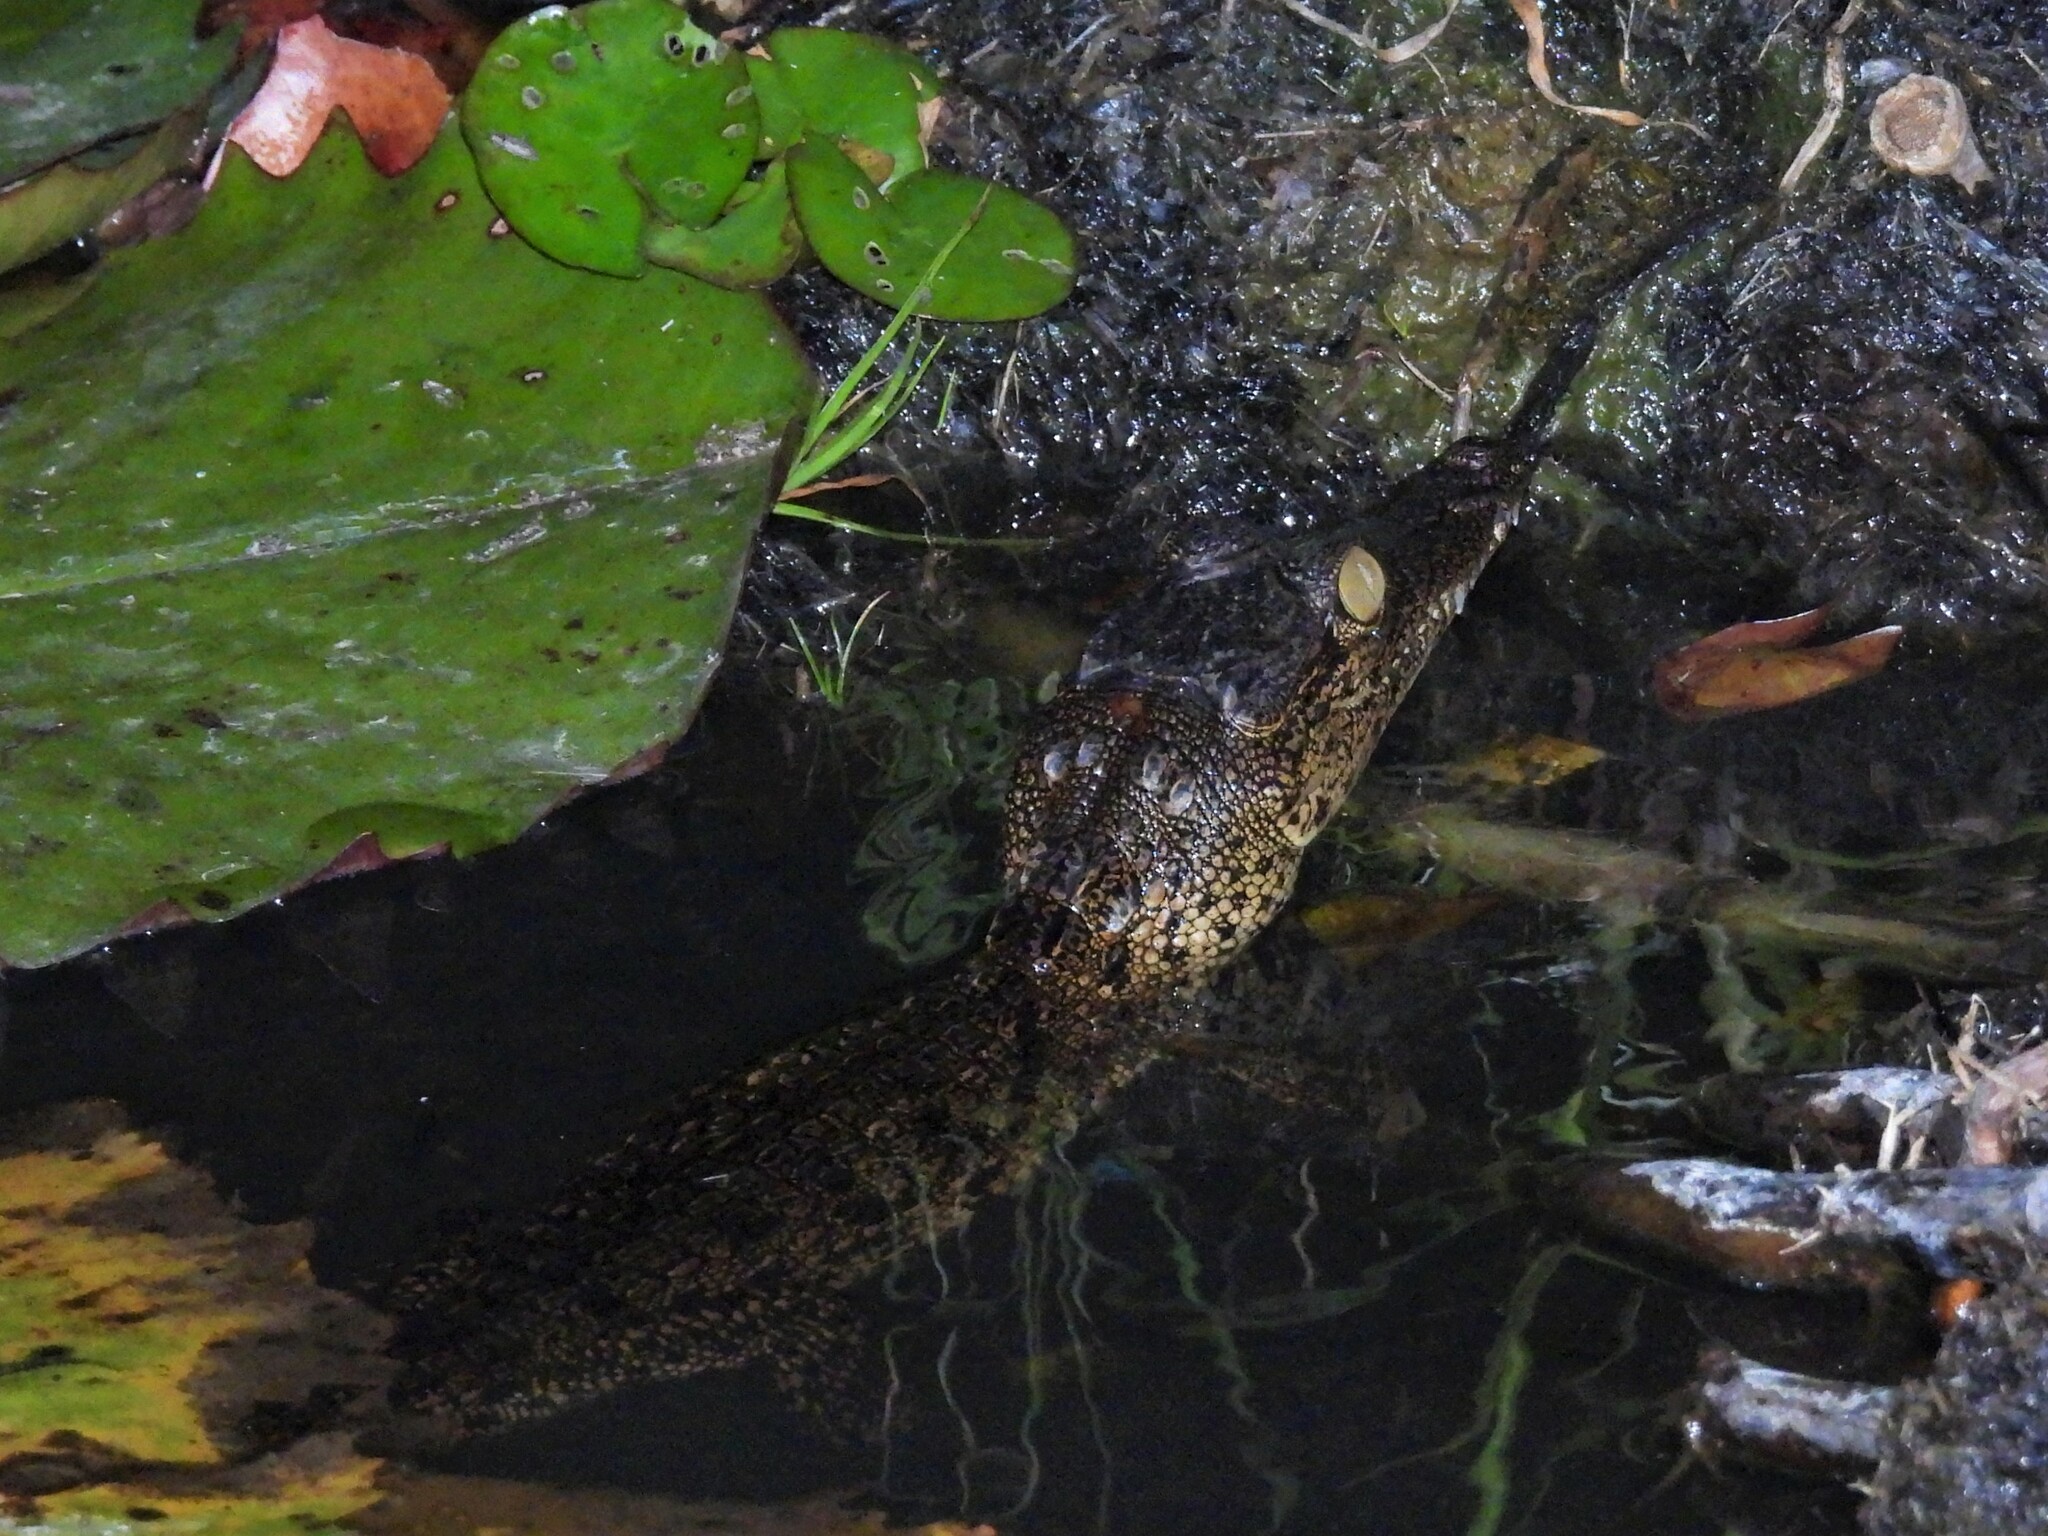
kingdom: Animalia
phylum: Chordata
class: Crocodylia
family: Crocodylidae
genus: Crocodylus
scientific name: Crocodylus niloticus
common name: Nile crocodile
